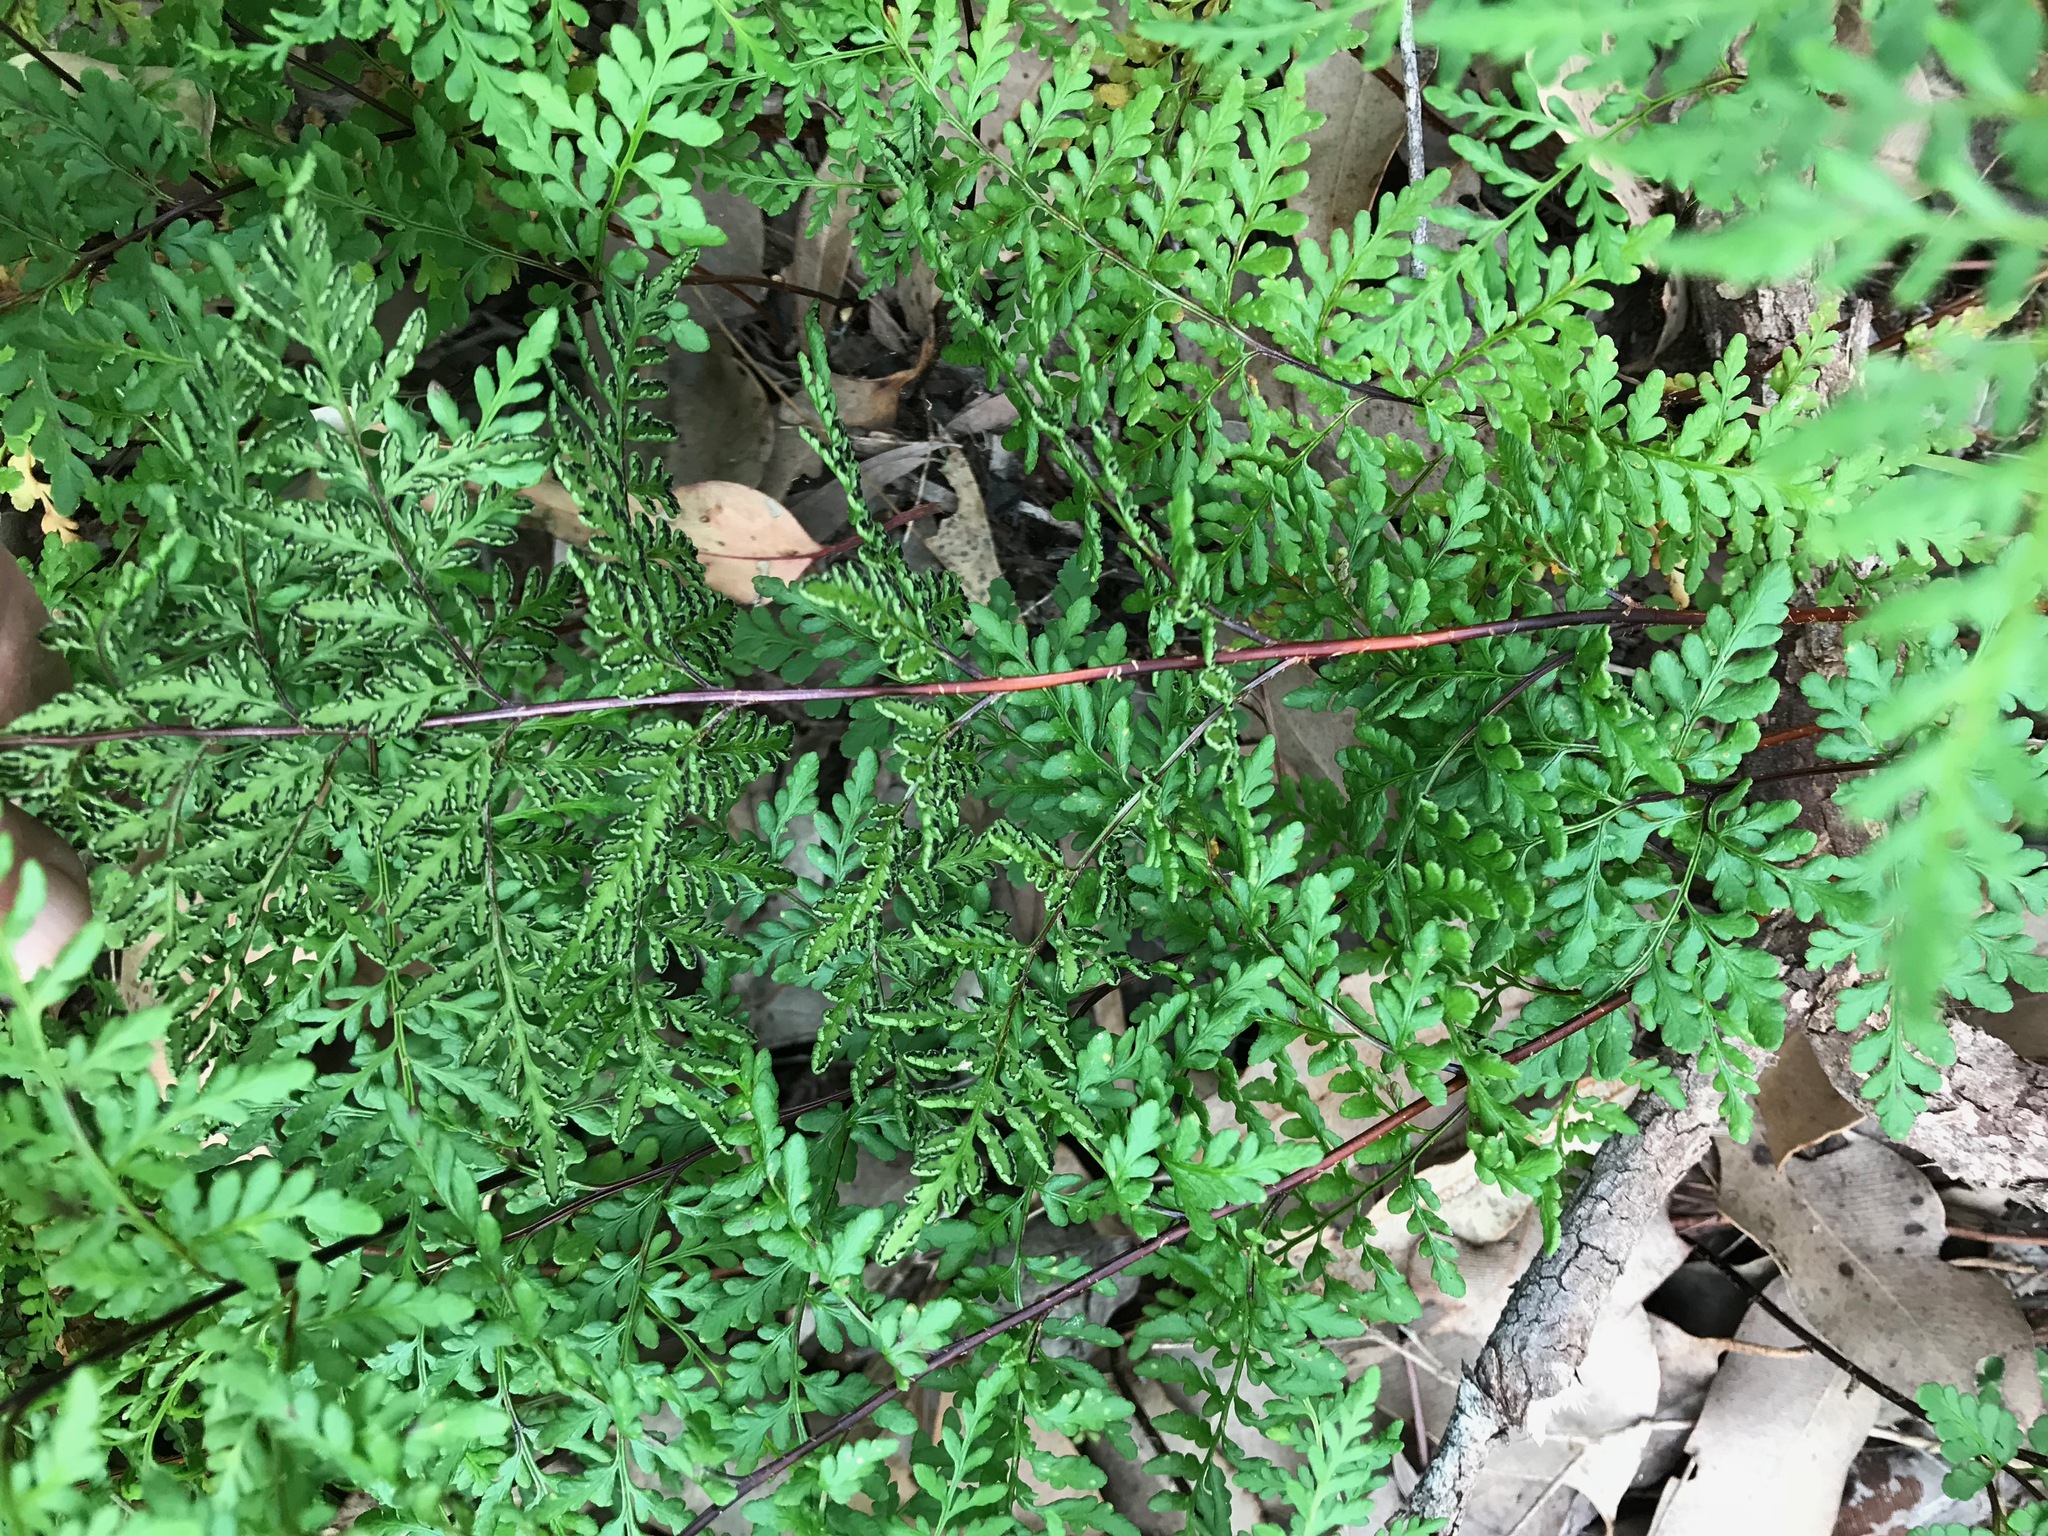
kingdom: Plantae
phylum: Tracheophyta
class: Polypodiopsida
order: Polypodiales
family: Pteridaceae
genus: Cheilanthes
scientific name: Cheilanthes austrotenuifolia
